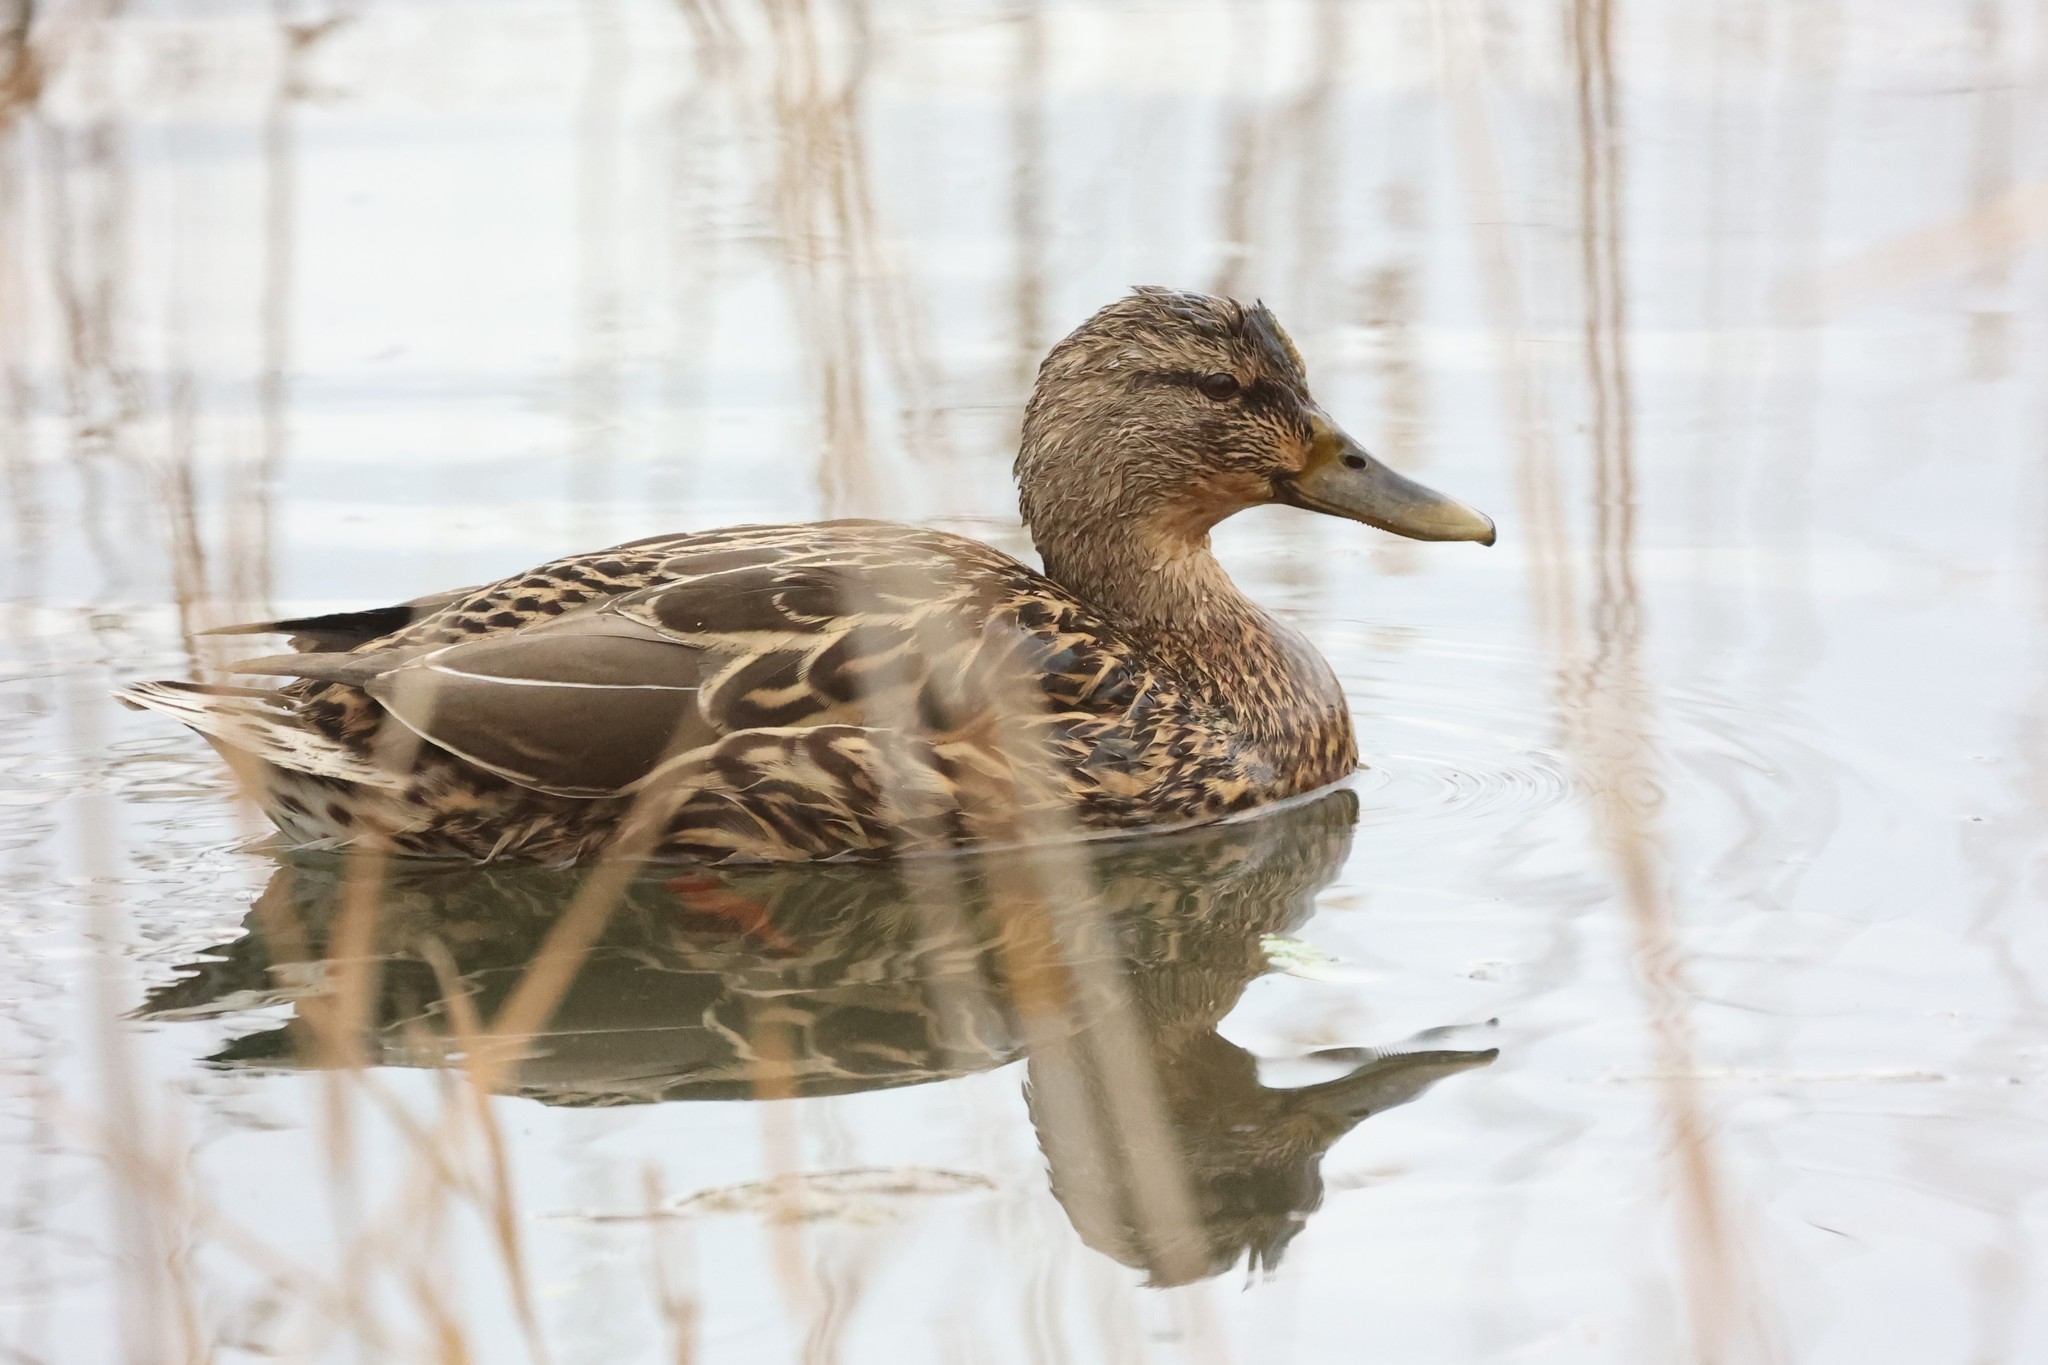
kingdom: Animalia
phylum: Chordata
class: Aves
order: Anseriformes
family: Anatidae
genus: Anas
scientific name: Anas platyrhynchos
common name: Mallard
